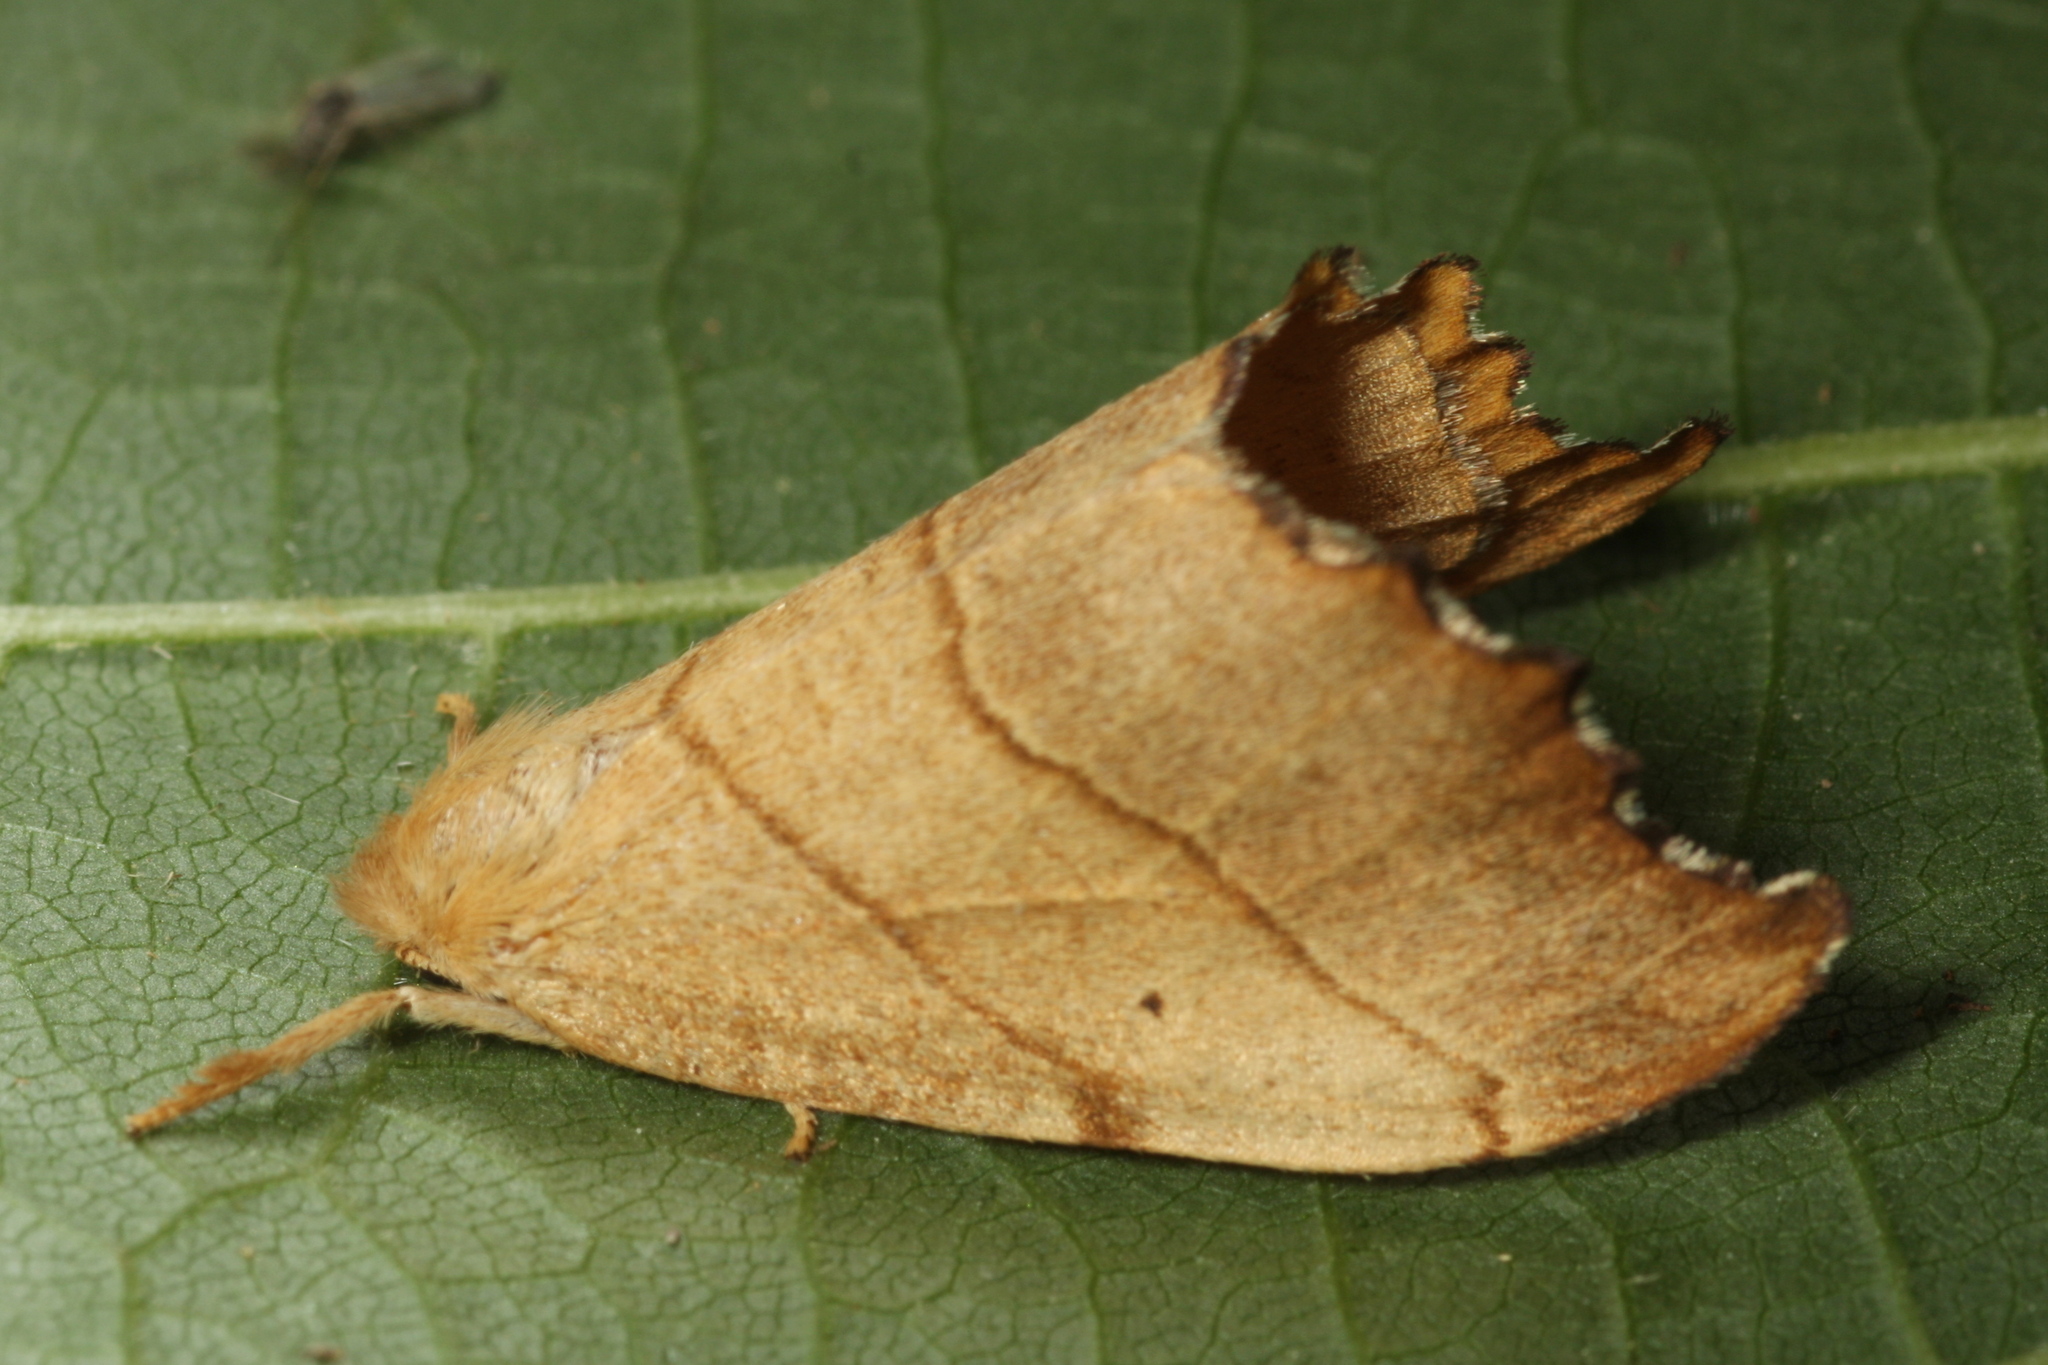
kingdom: Animalia
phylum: Arthropoda
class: Insecta
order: Lepidoptera
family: Drepanidae
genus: Falcaria
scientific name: Falcaria lacertinaria
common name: Scalloped hook-tip
